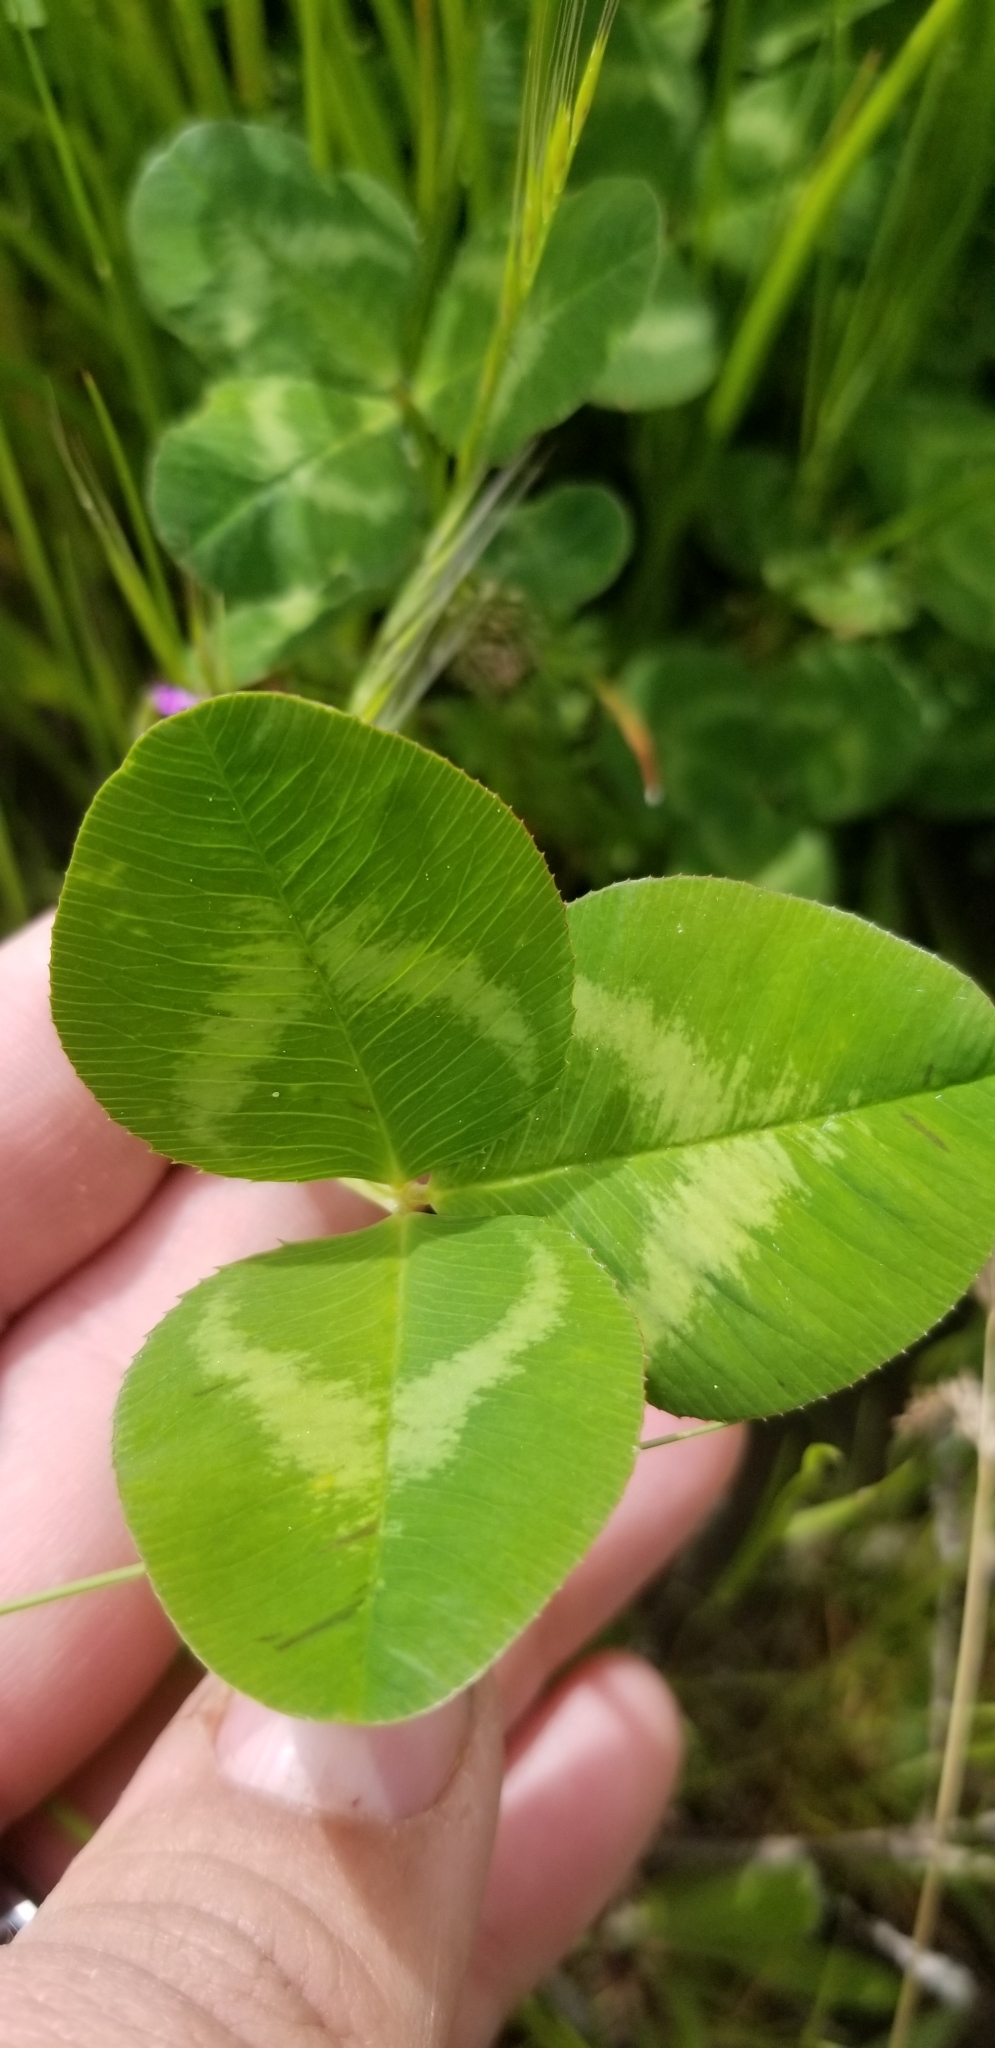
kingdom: Plantae
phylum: Tracheophyta
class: Magnoliopsida
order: Fabales
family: Fabaceae
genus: Trifolium
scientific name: Trifolium repens
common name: White clover
